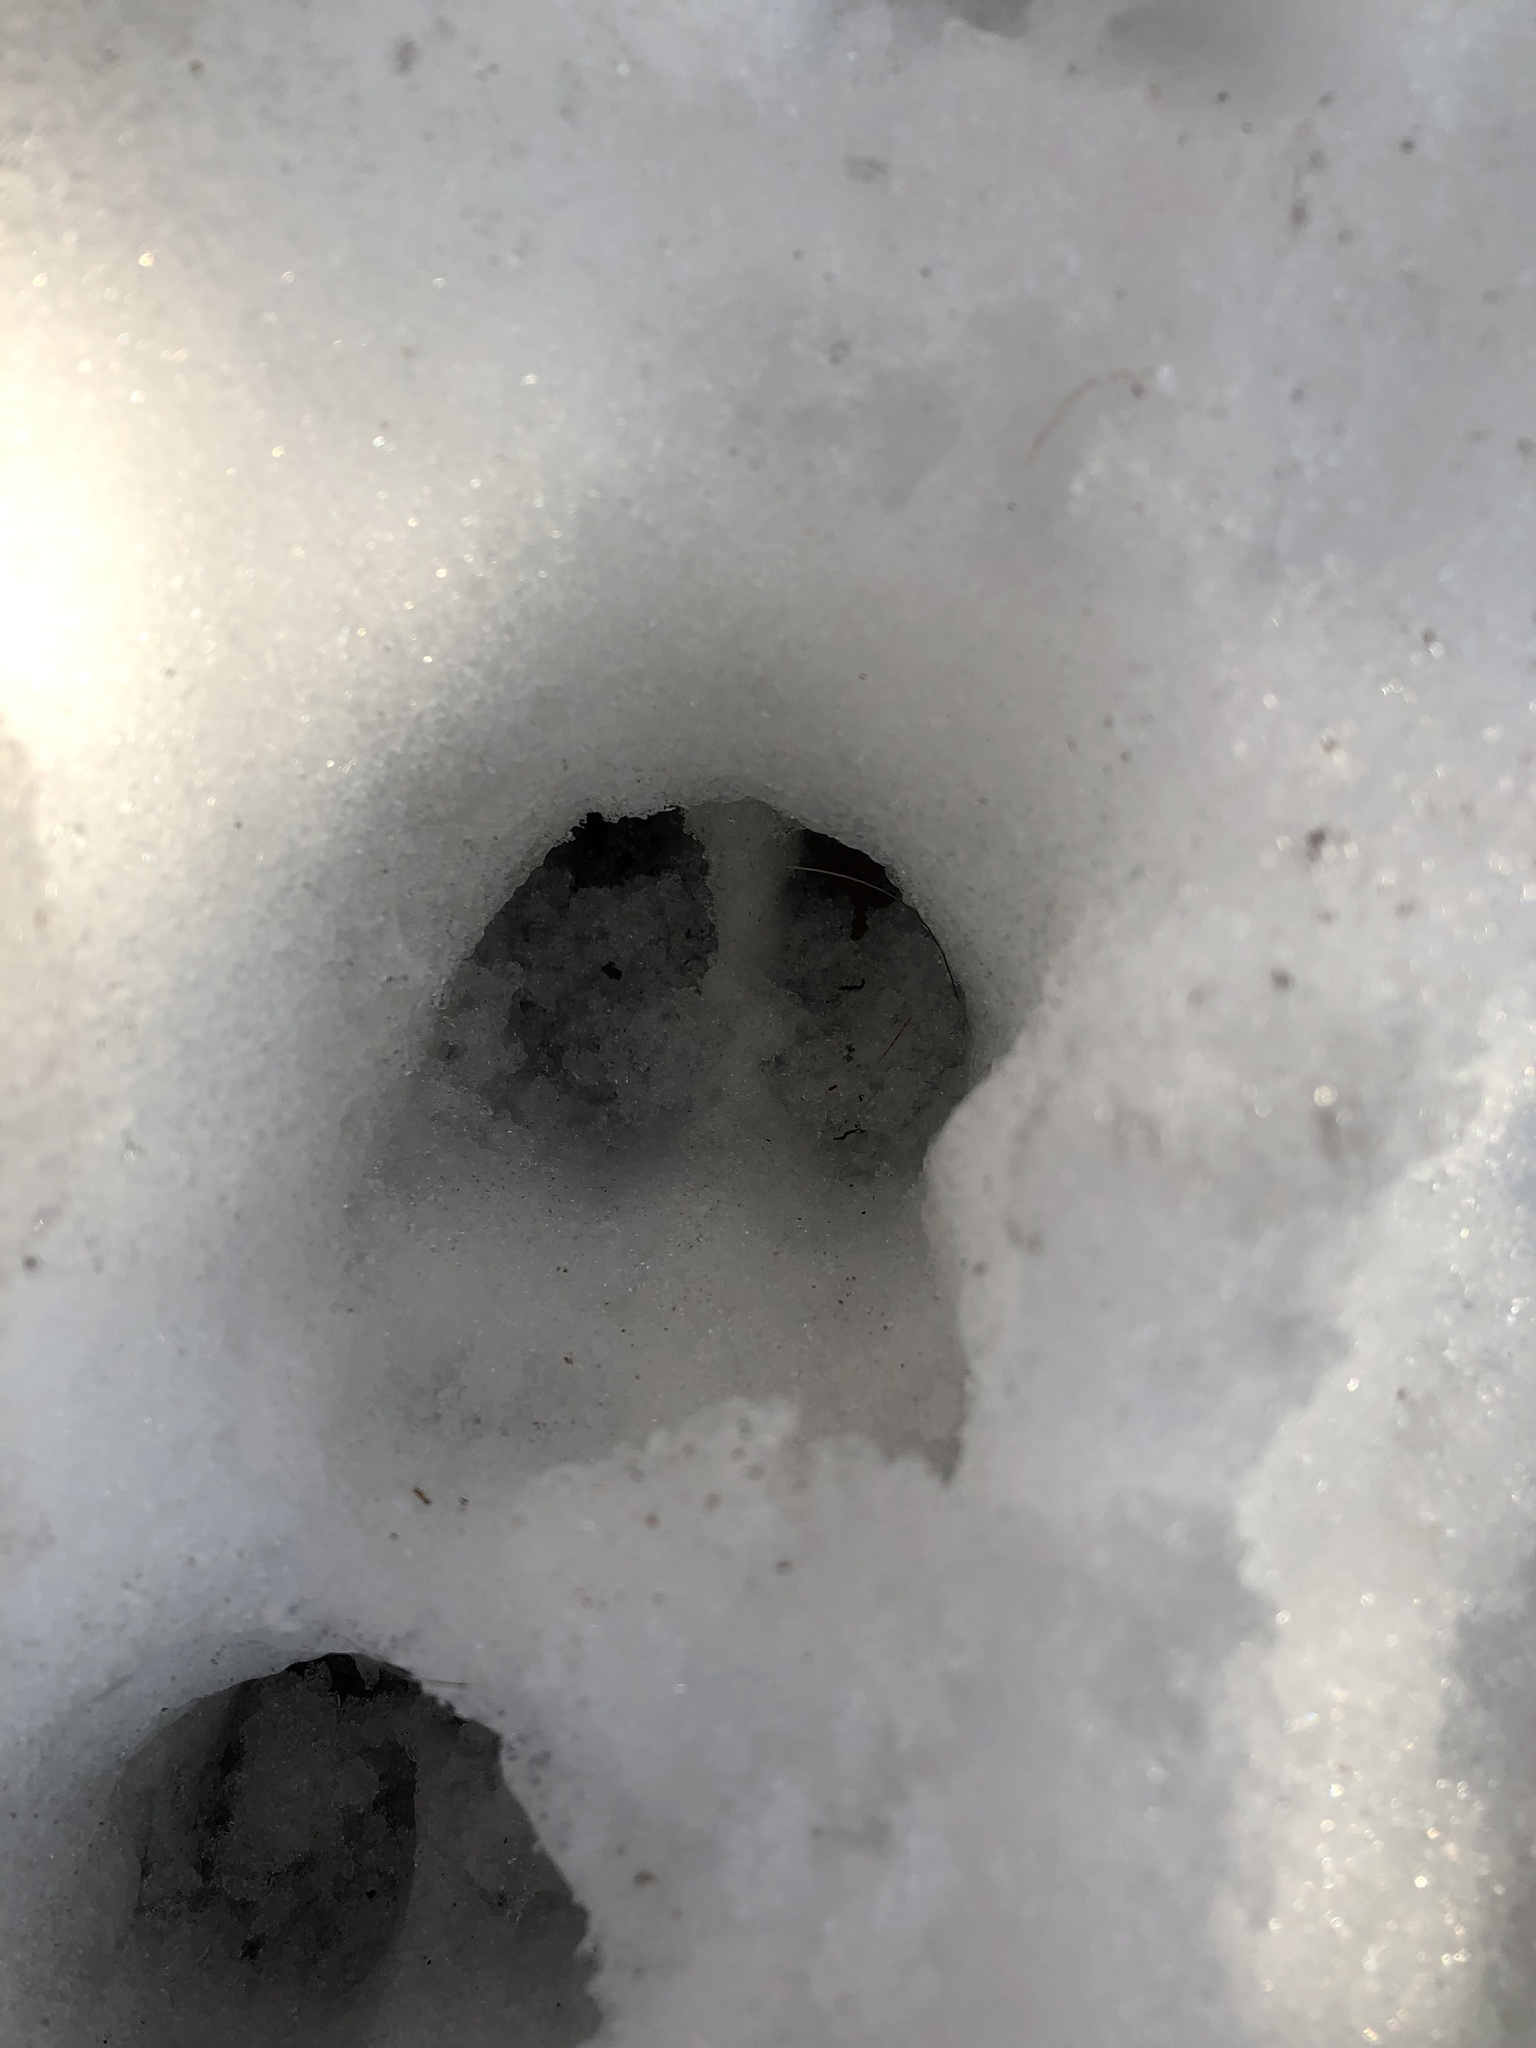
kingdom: Animalia
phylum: Chordata
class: Mammalia
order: Artiodactyla
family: Cervidae
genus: Odocoileus
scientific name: Odocoileus virginianus
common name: White-tailed deer
